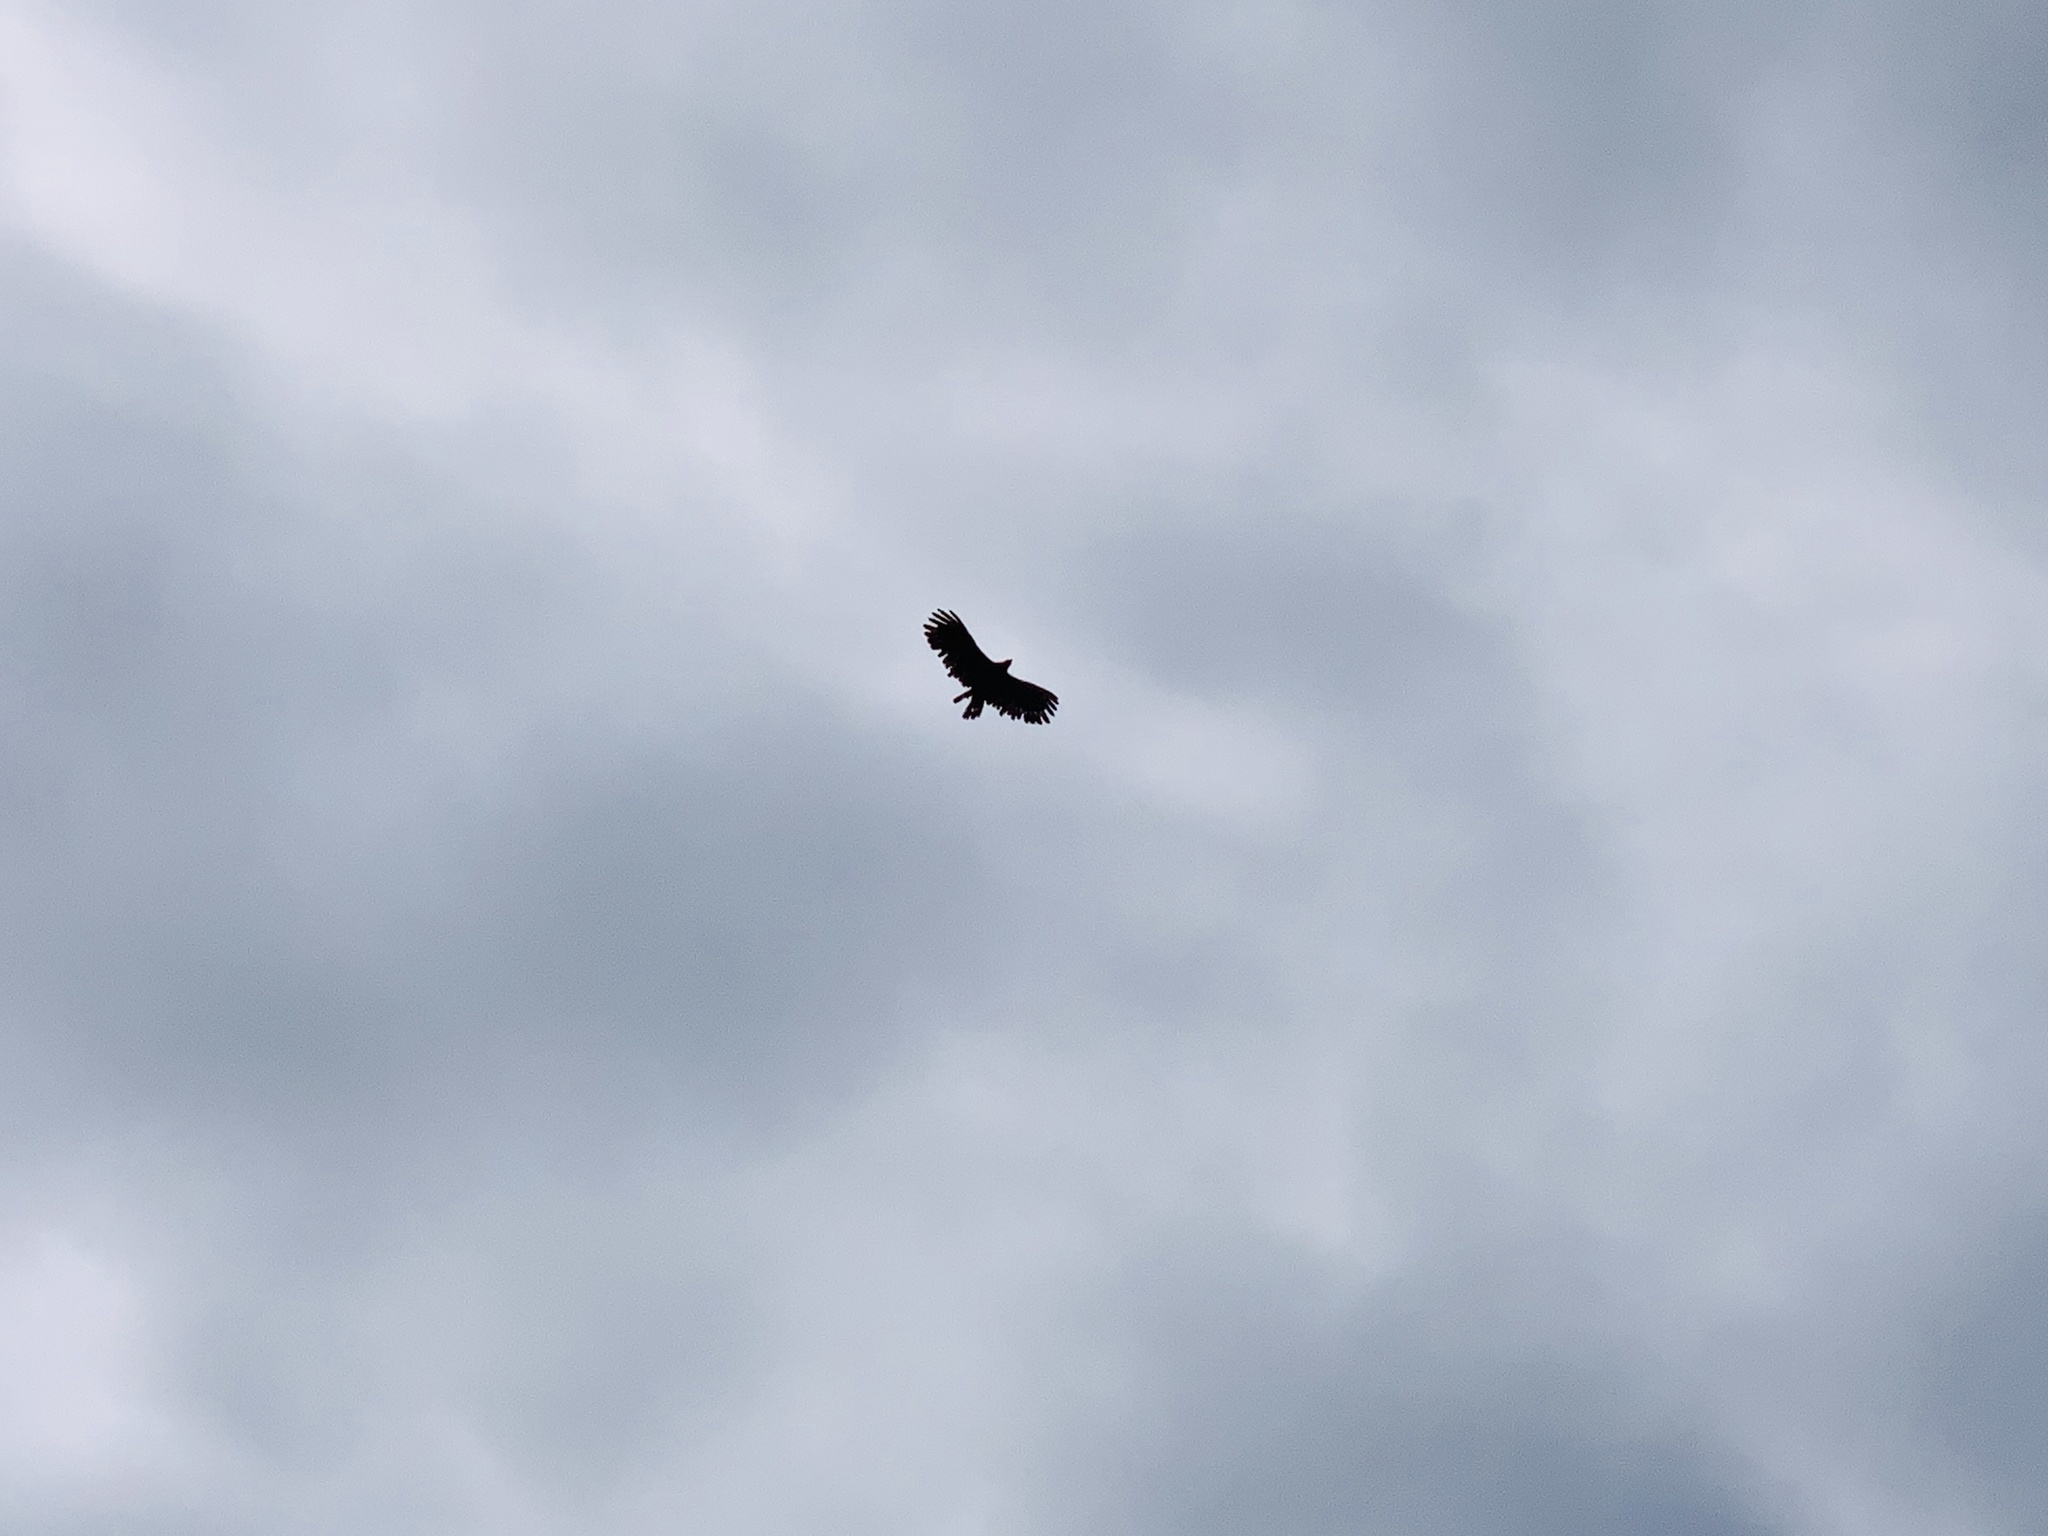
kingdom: Animalia
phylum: Chordata
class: Aves
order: Accipitriformes
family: Accipitridae
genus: Ictinaetus
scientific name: Ictinaetus malayensis
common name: Black eagle
